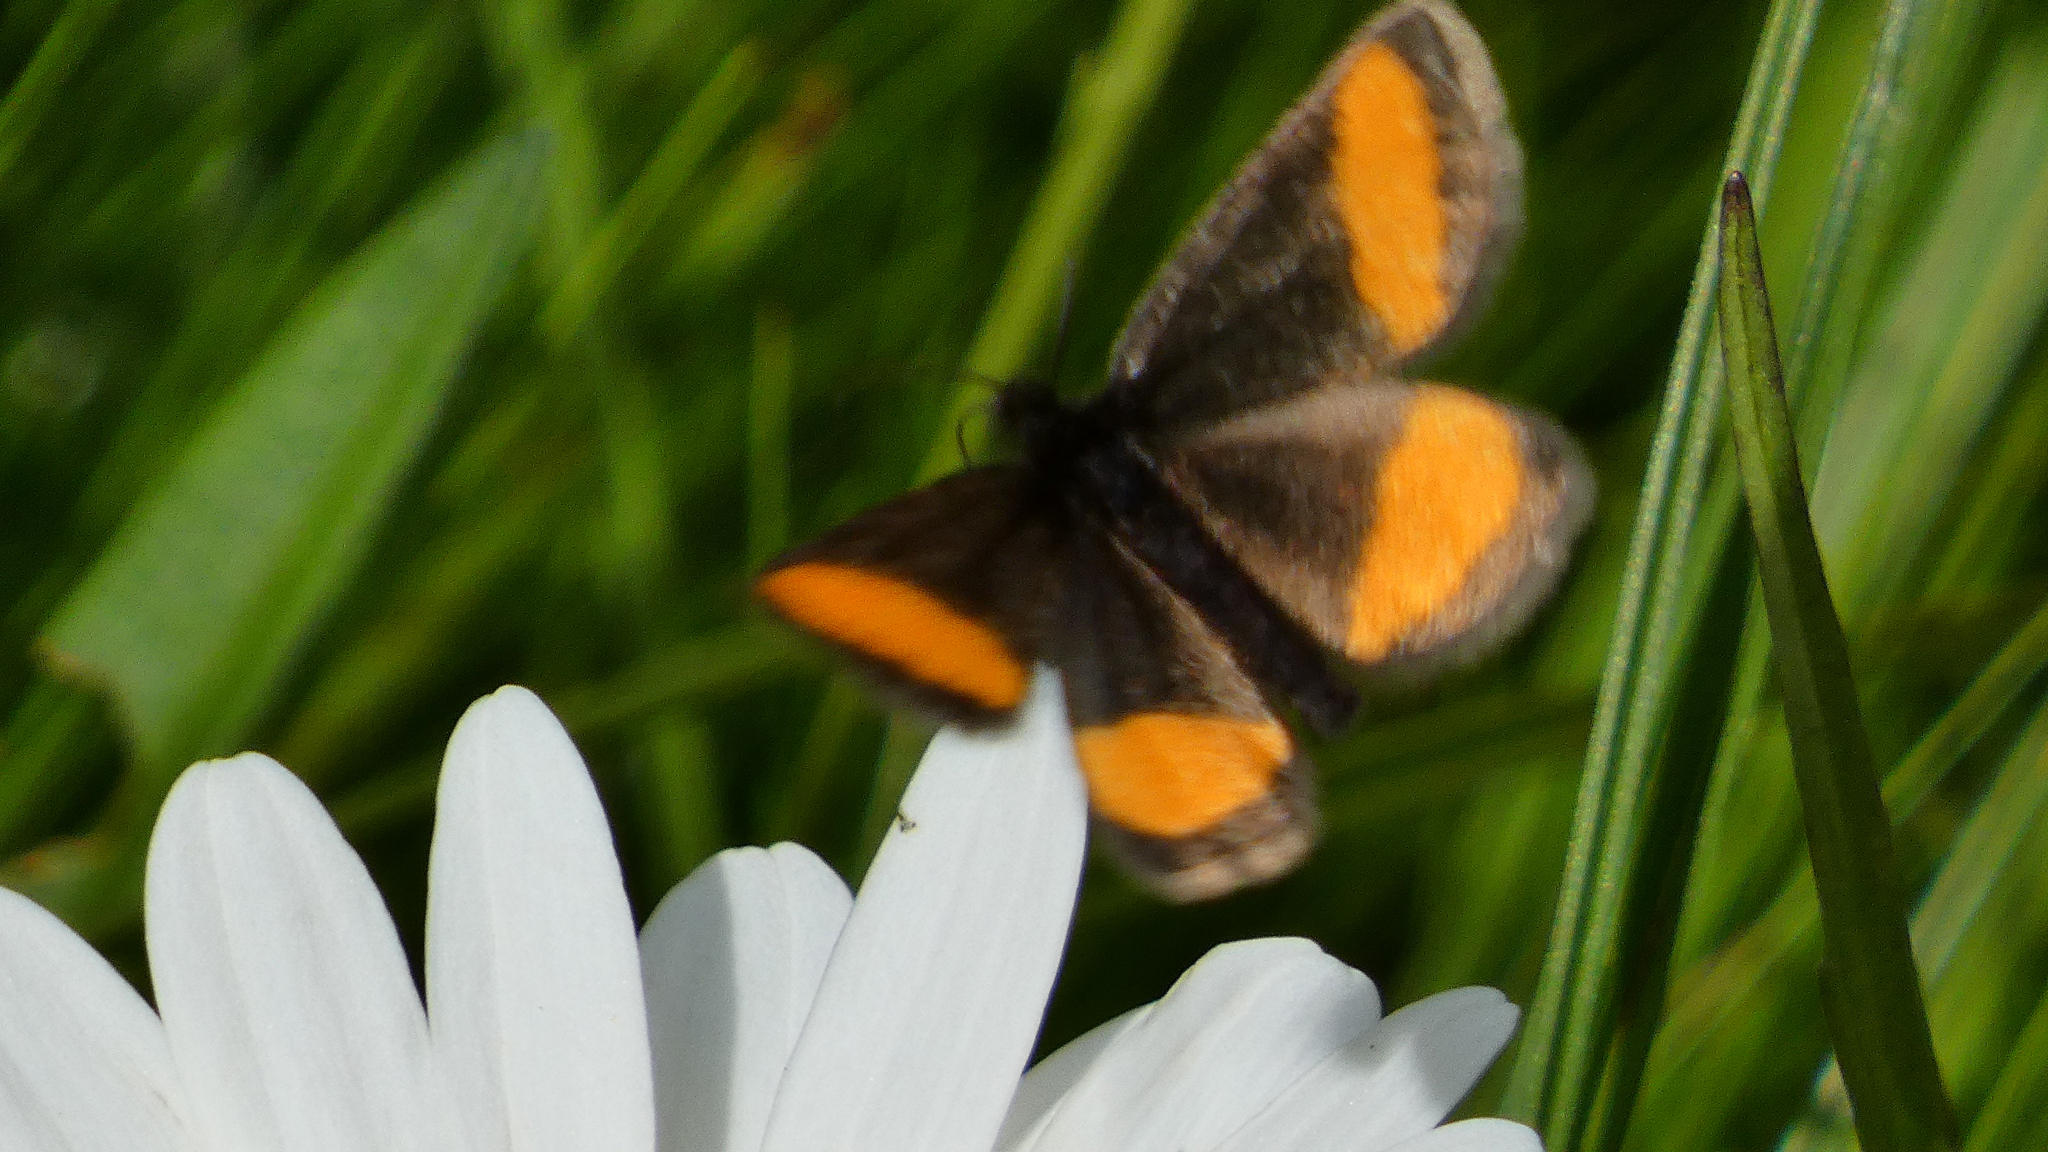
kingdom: Animalia
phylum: Arthropoda
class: Insecta
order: Lepidoptera
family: Geometridae
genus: Psodos
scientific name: Psodos quadrifaria
